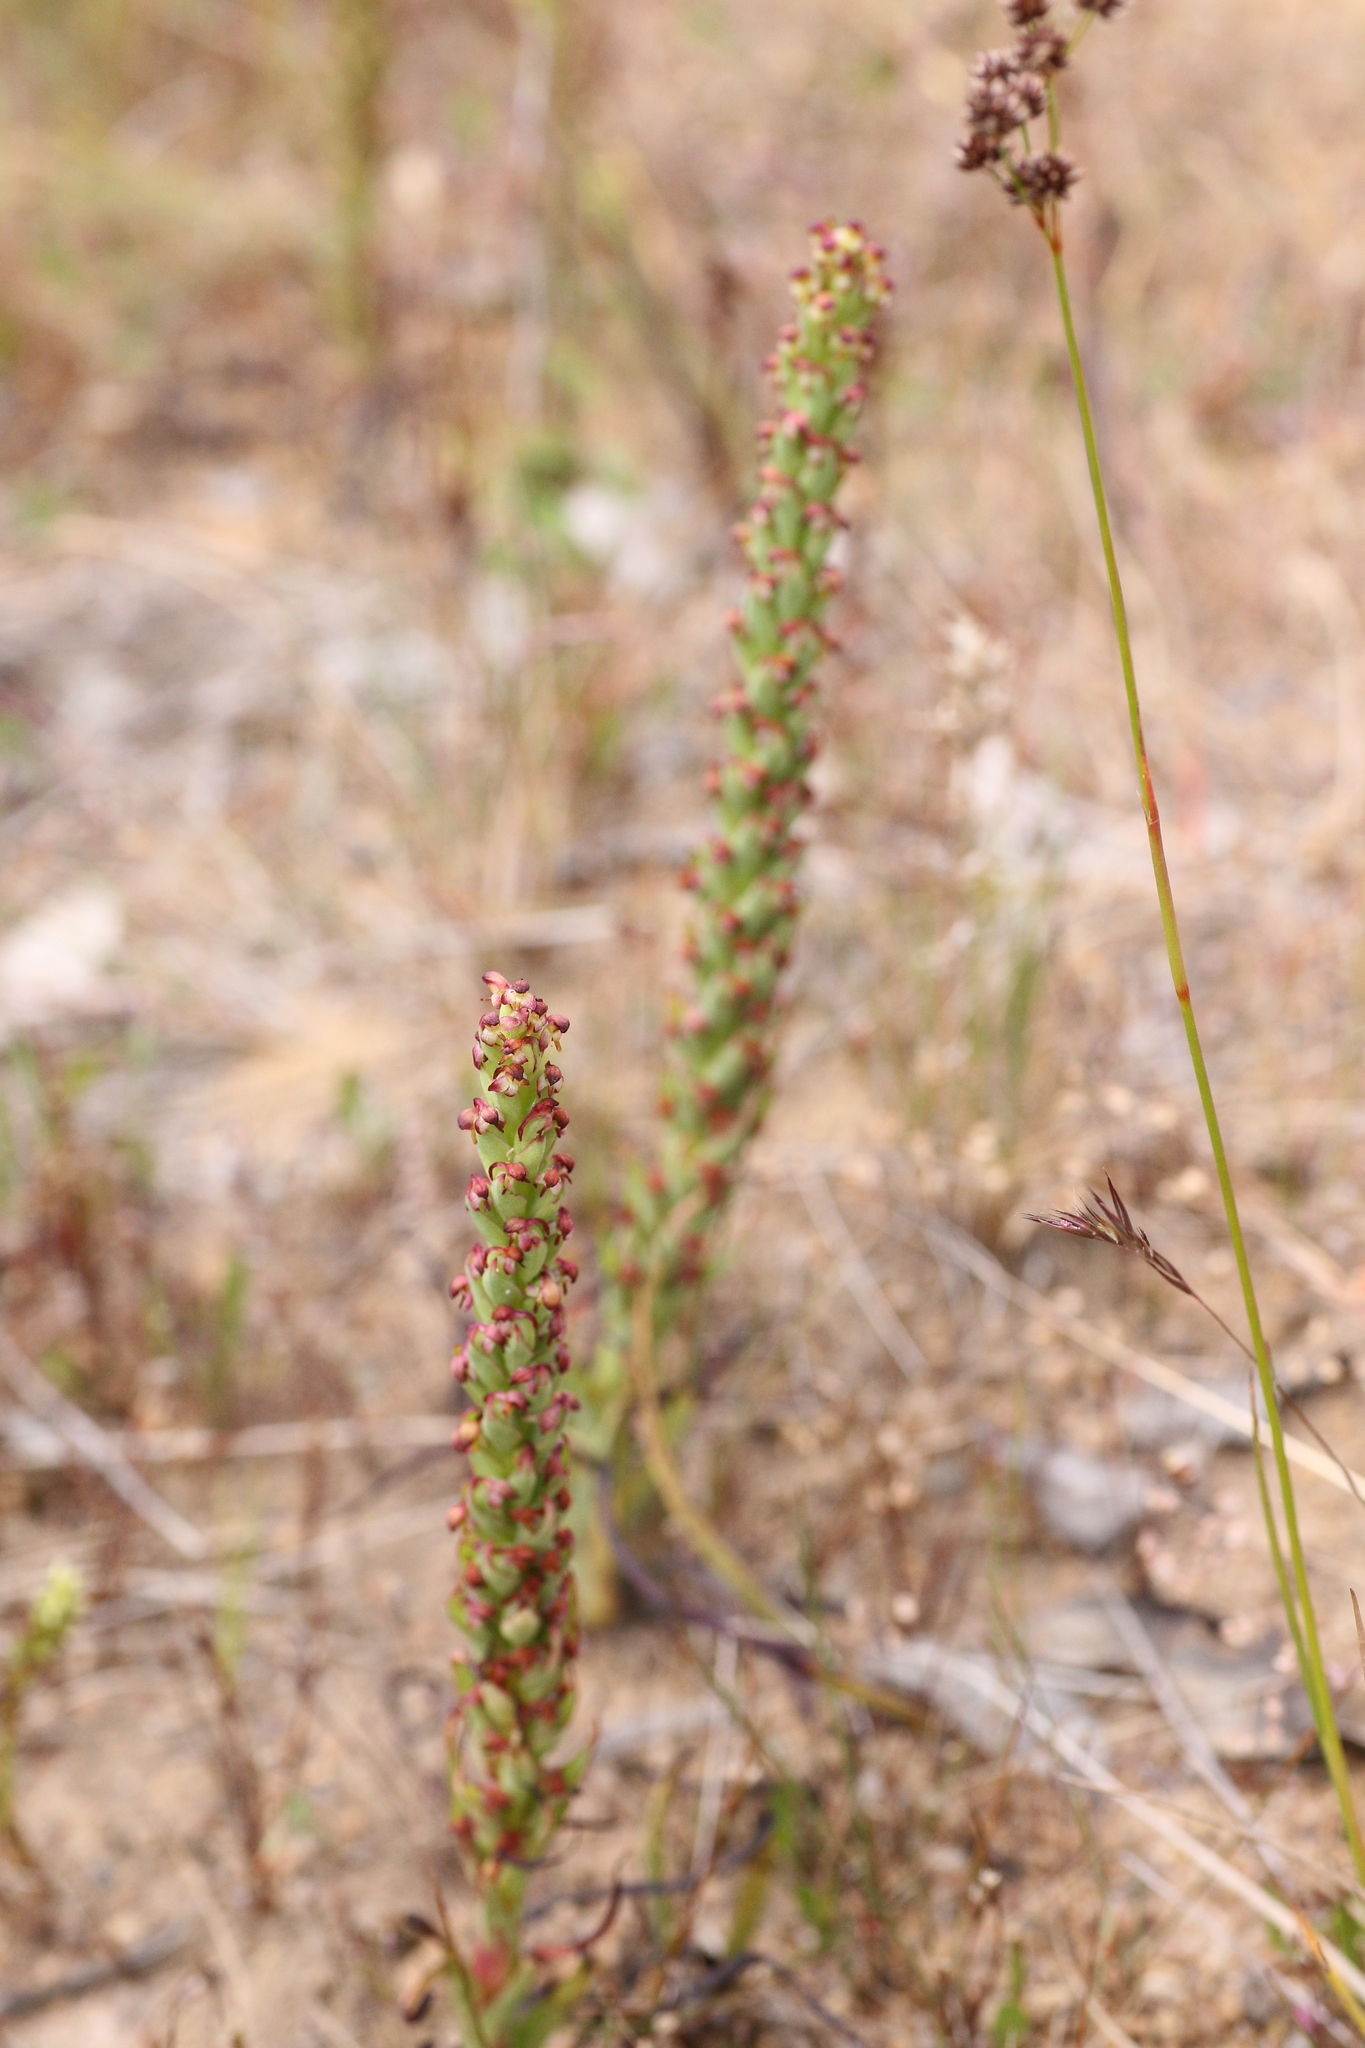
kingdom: Plantae
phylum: Tracheophyta
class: Liliopsida
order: Asparagales
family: Orchidaceae
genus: Disa
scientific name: Disa bracteata
